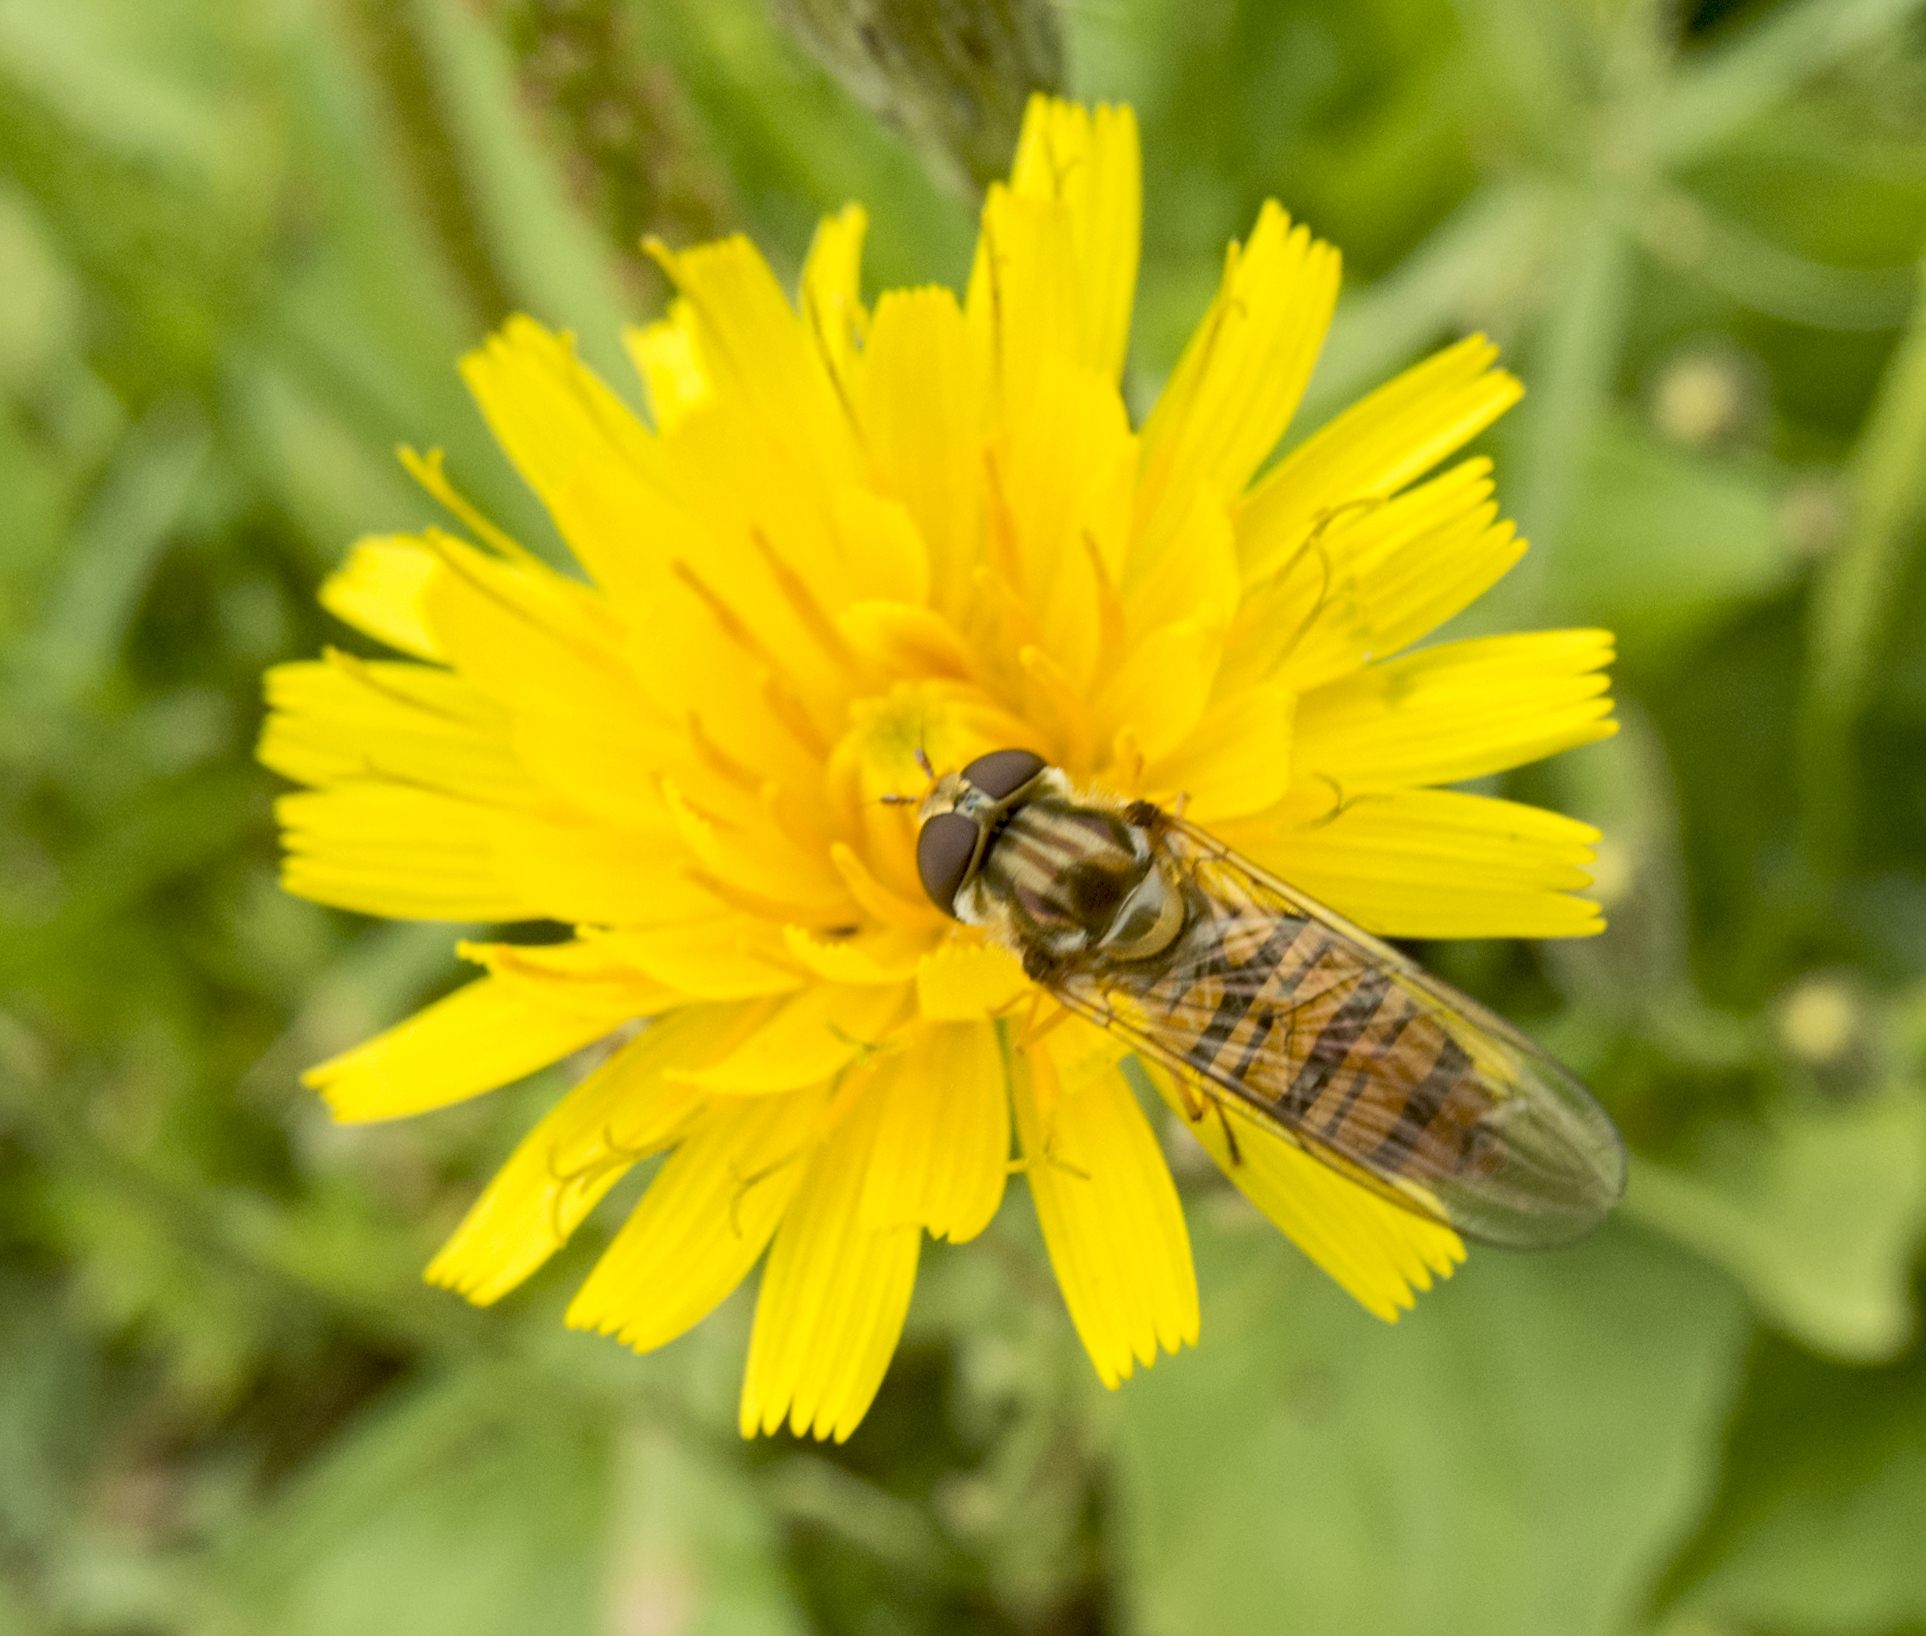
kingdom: Animalia
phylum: Arthropoda
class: Insecta
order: Diptera
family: Syrphidae
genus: Episyrphus
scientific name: Episyrphus balteatus
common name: Marmalade hoverfly
